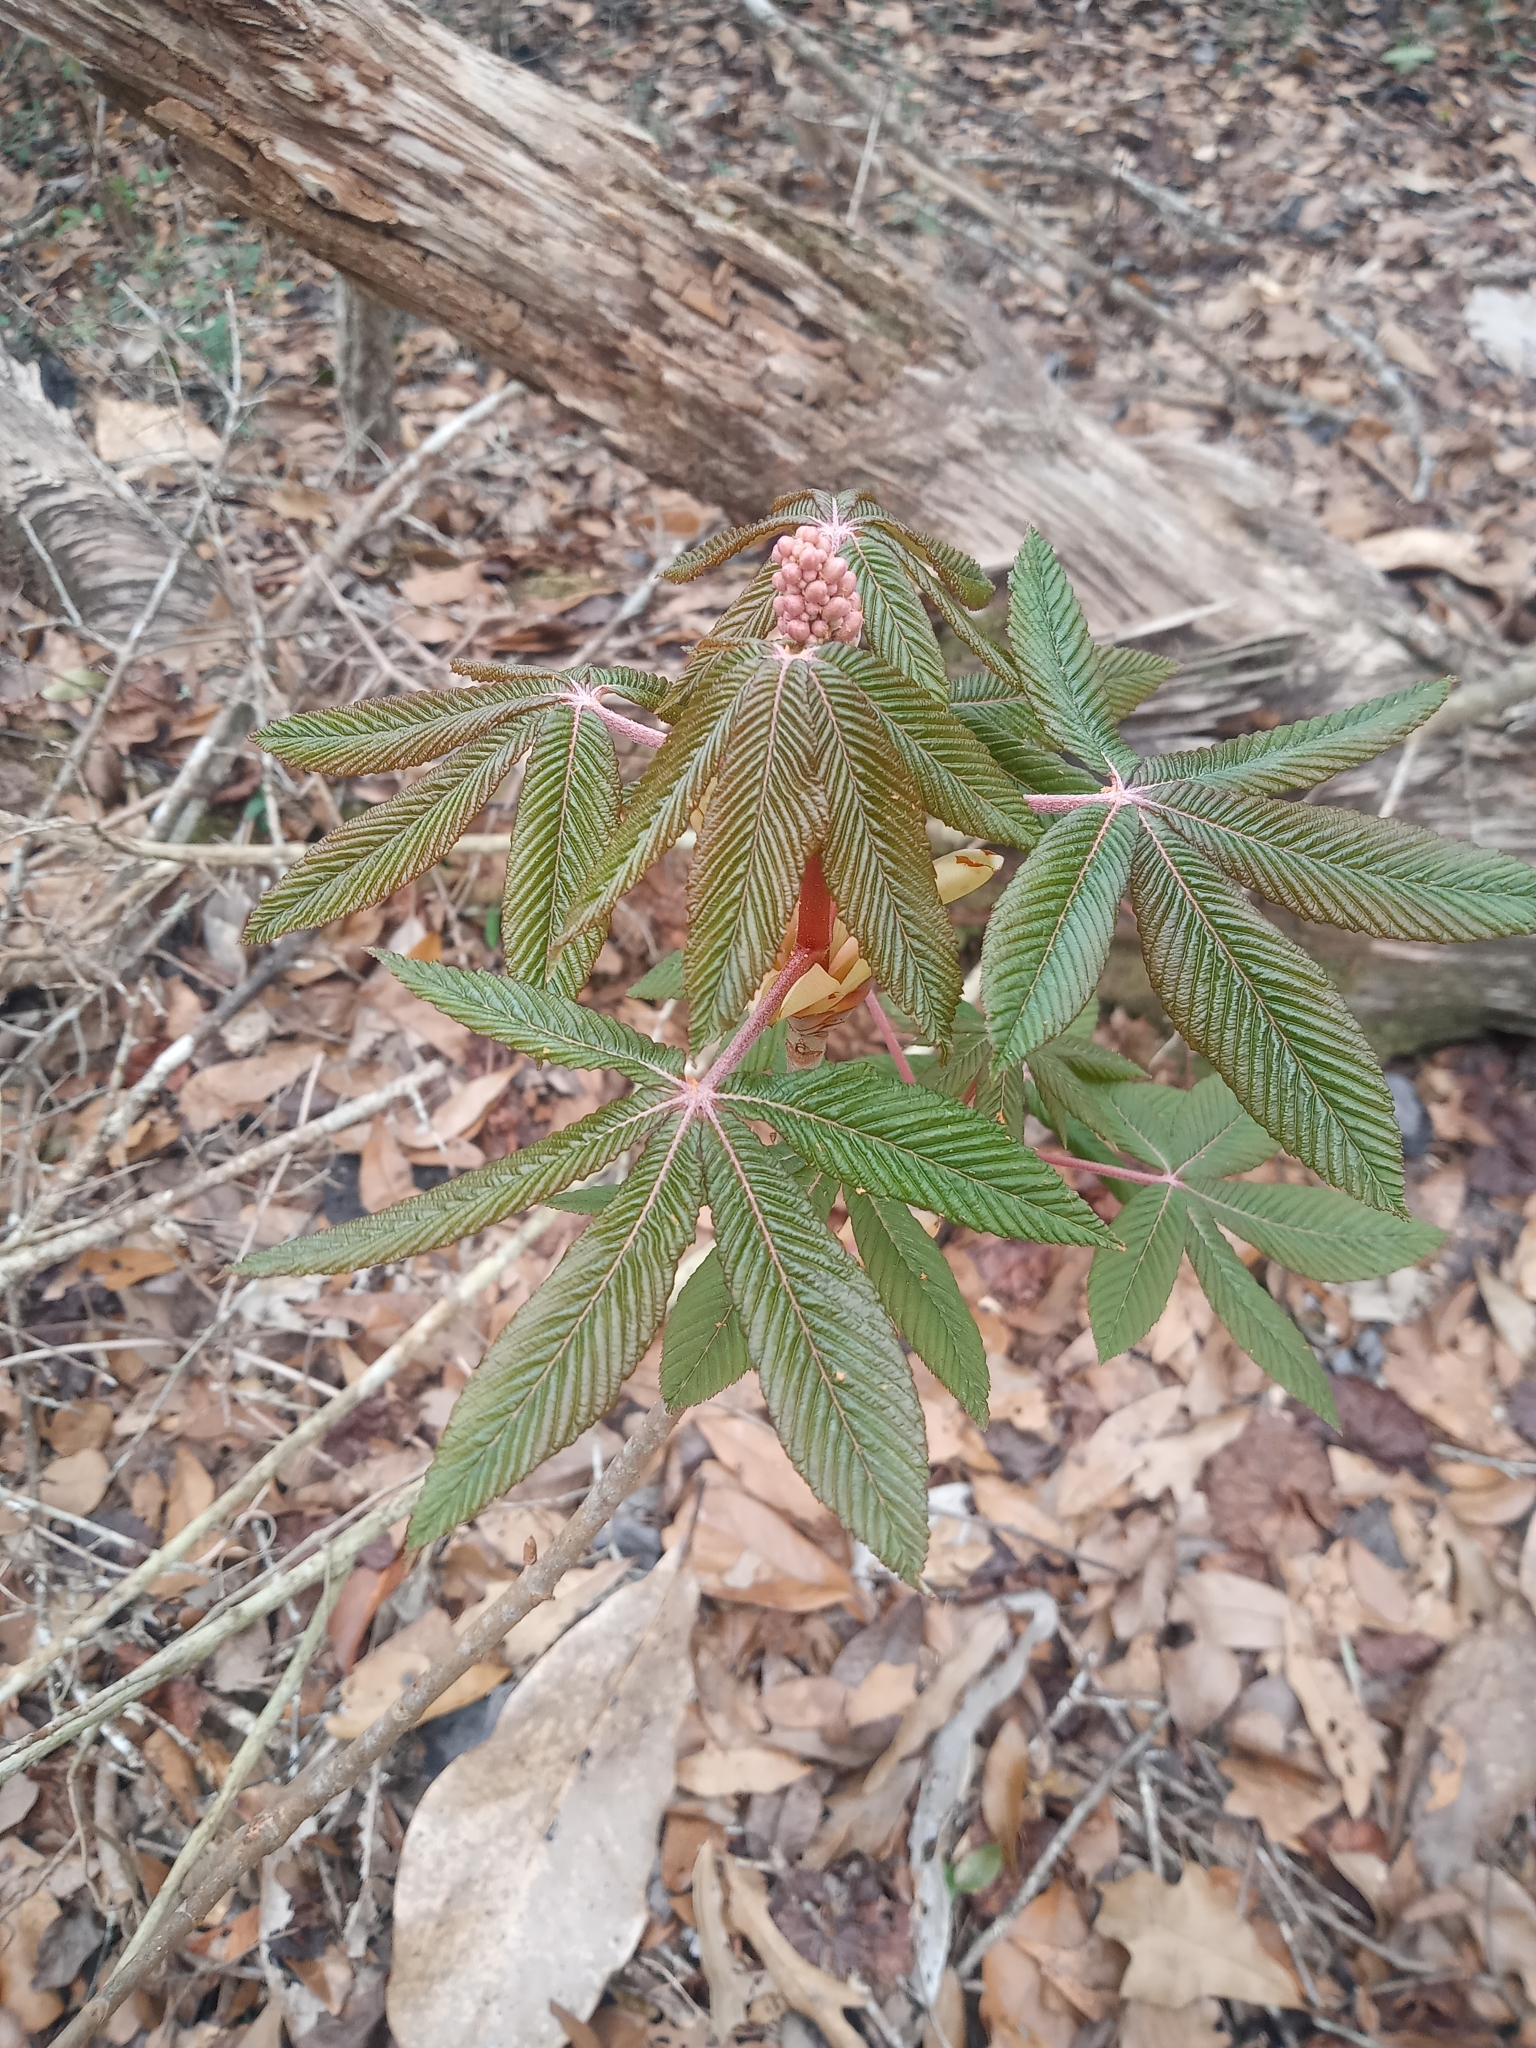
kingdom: Plantae
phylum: Tracheophyta
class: Magnoliopsida
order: Sapindales
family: Sapindaceae
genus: Aesculus
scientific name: Aesculus pavia
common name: Red buckeye
